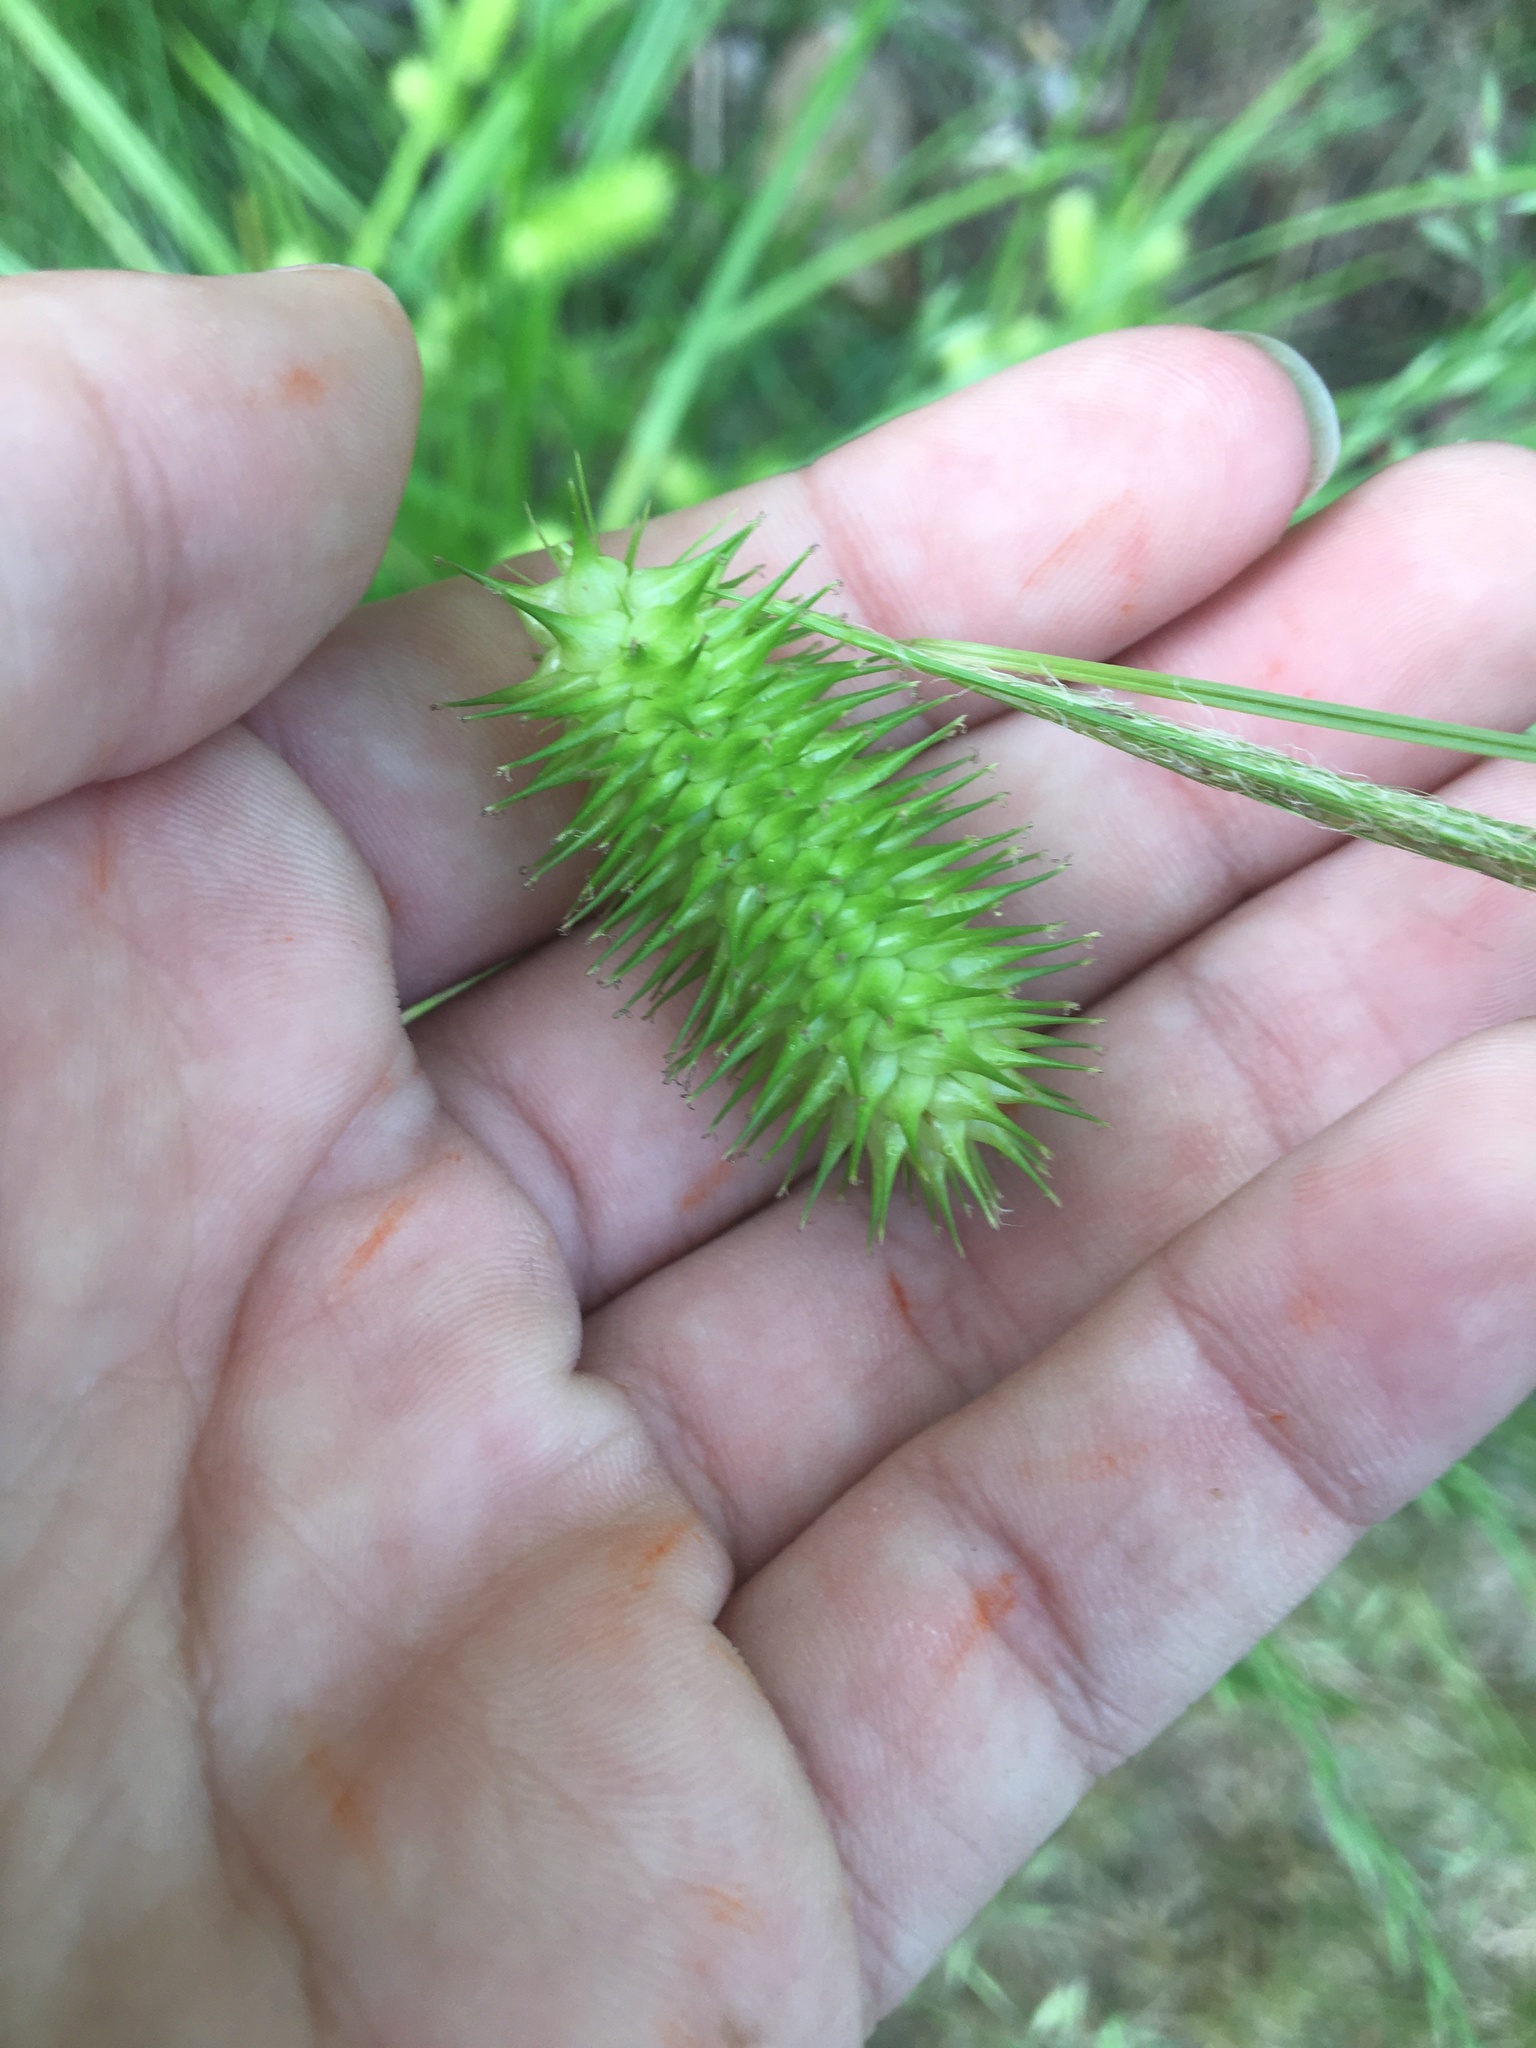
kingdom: Plantae
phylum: Tracheophyta
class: Liliopsida
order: Poales
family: Cyperaceae
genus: Carex
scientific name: Carex lurida
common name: Sallow sedge
